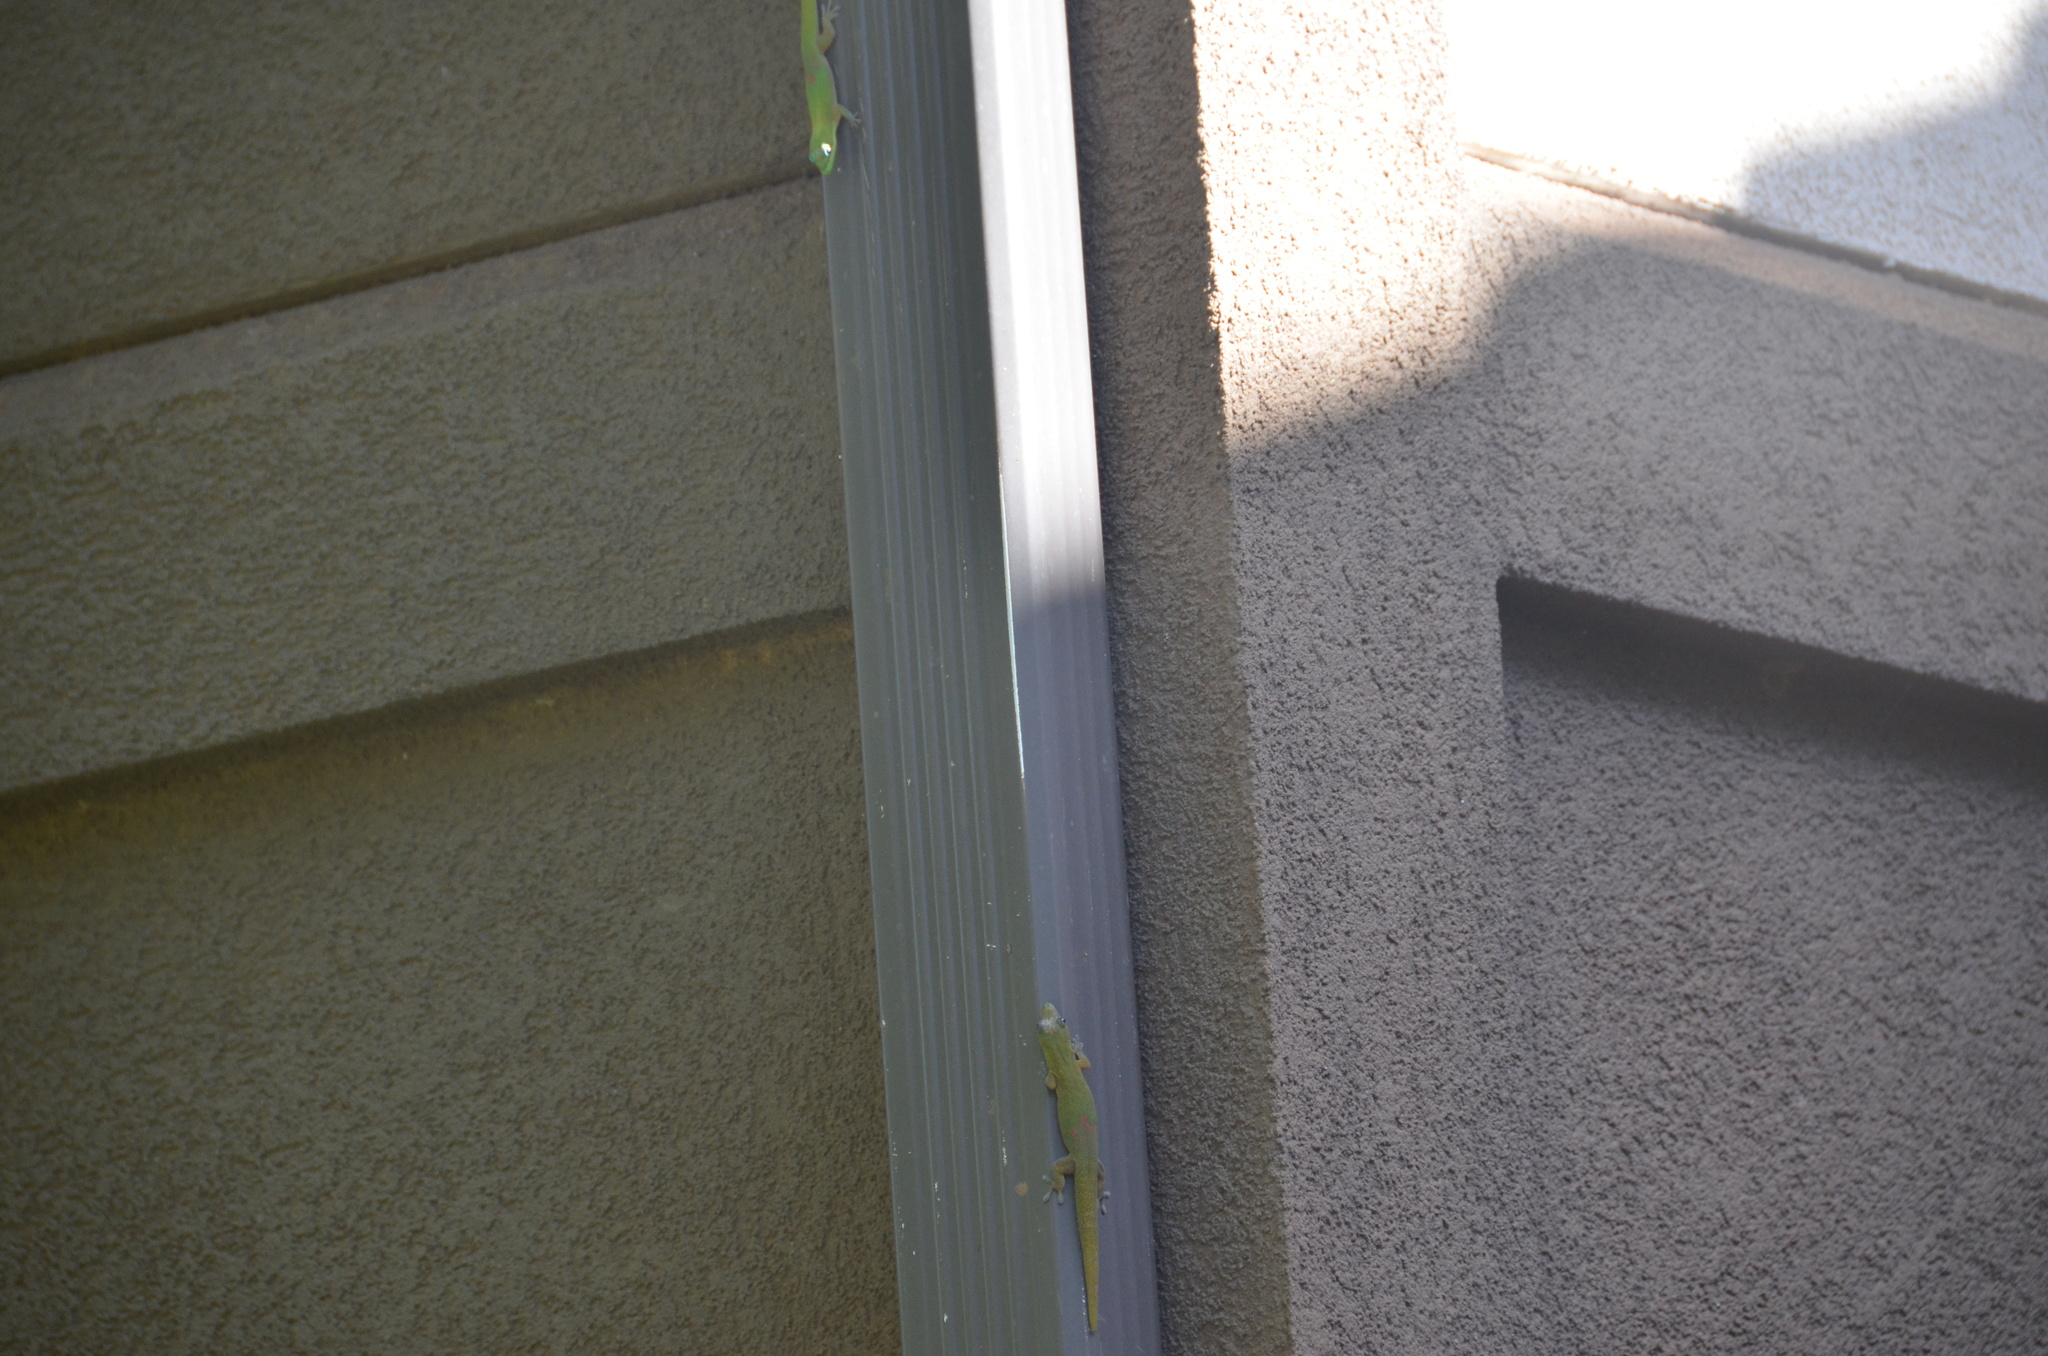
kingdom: Animalia
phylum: Chordata
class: Squamata
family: Gekkonidae
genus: Phelsuma
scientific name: Phelsuma laticauda
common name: Gold dust day gecko
